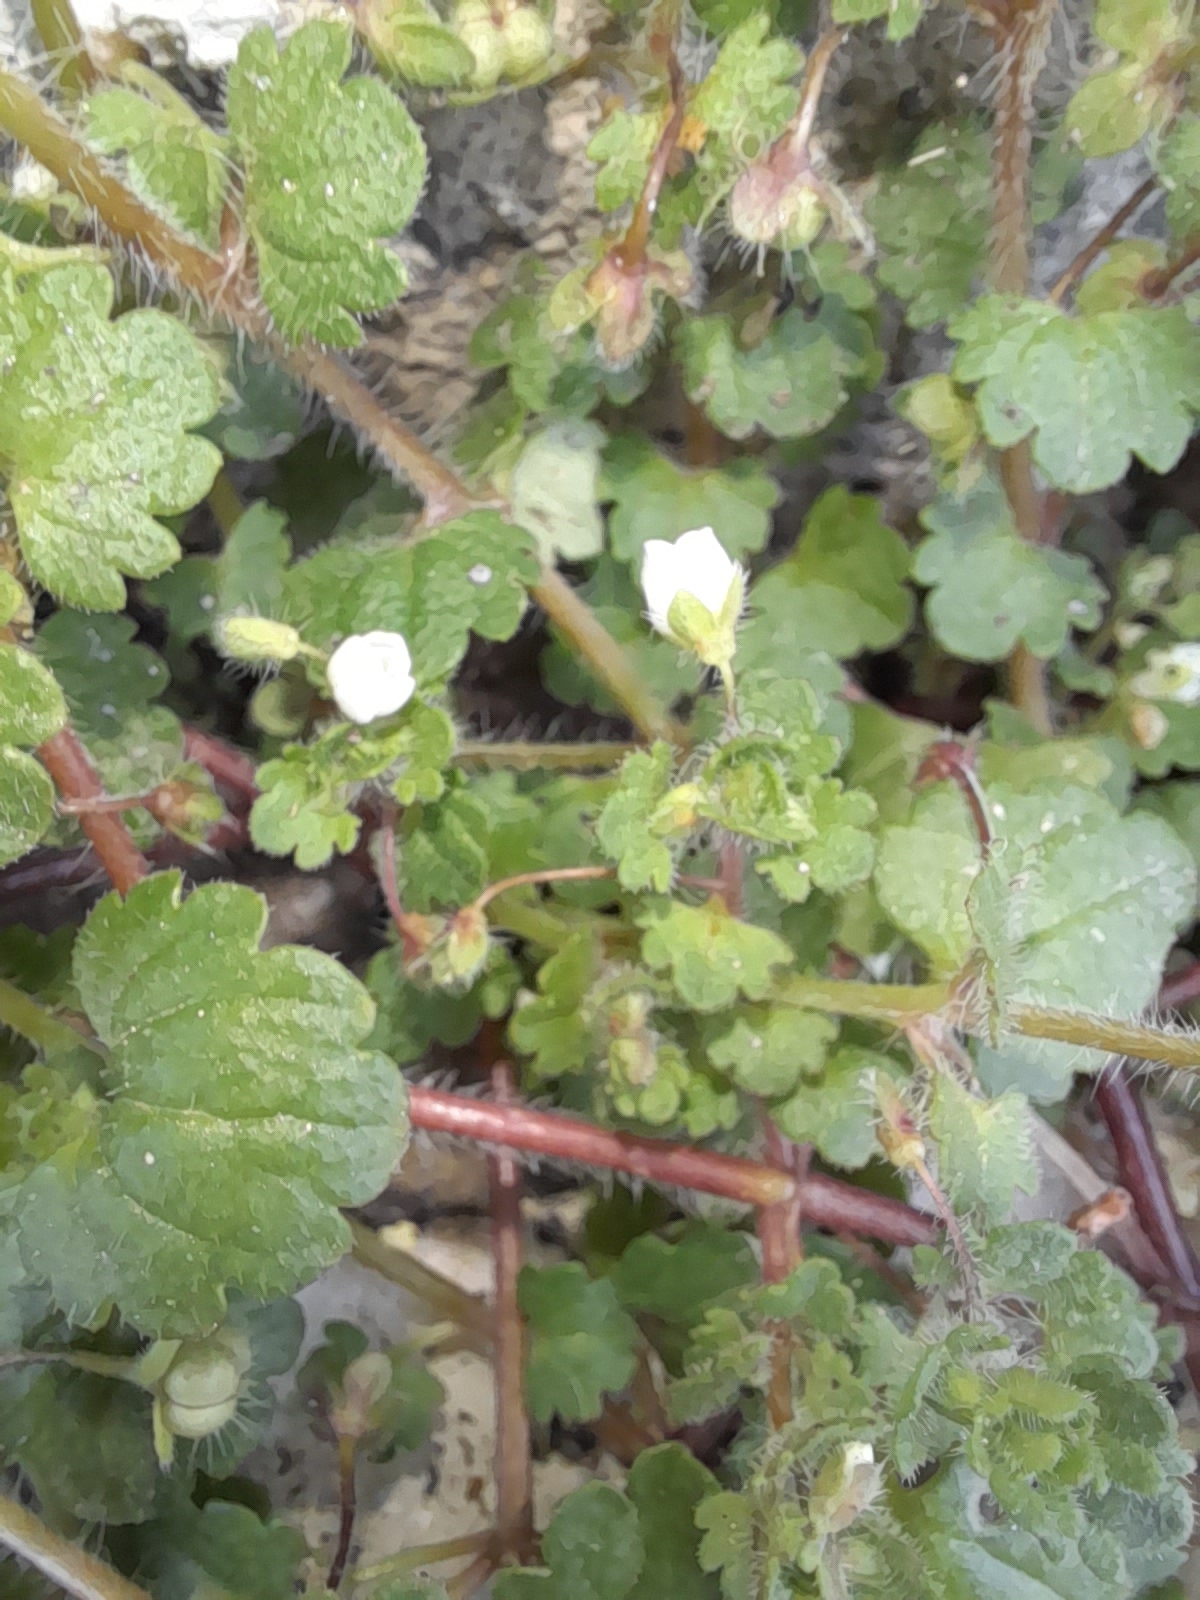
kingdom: Plantae
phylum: Tracheophyta
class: Magnoliopsida
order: Lamiales
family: Plantaginaceae
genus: Veronica
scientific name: Veronica cymbalaria
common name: Pale speedwell
